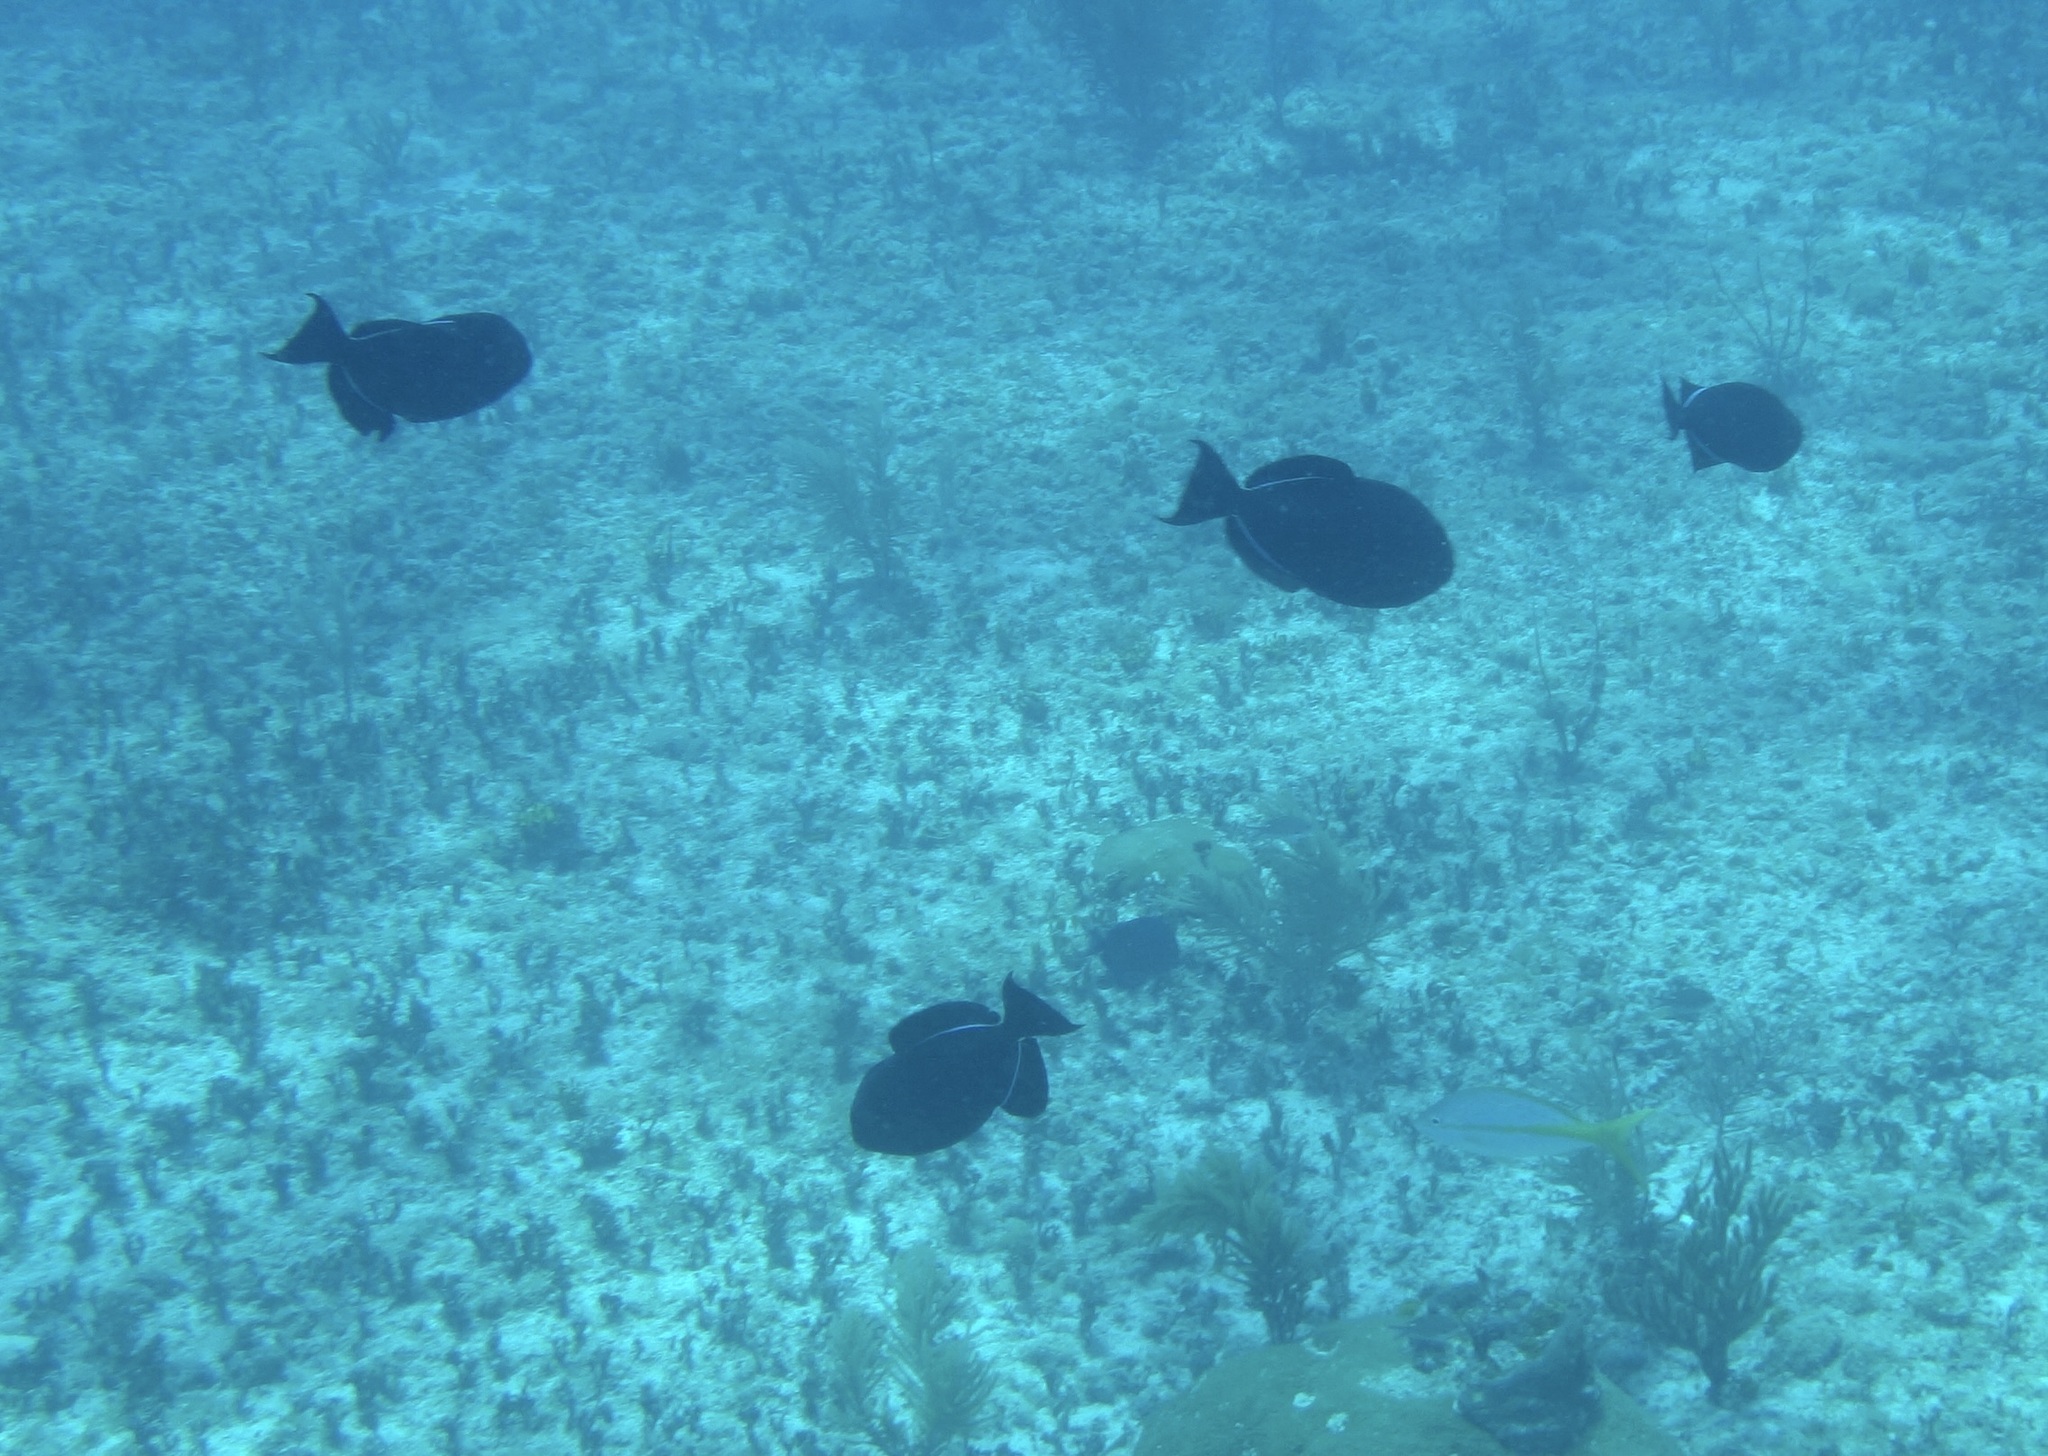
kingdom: Animalia
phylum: Chordata
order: Tetraodontiformes
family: Balistidae
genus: Melichthys
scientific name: Melichthys niger
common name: Black durgon
